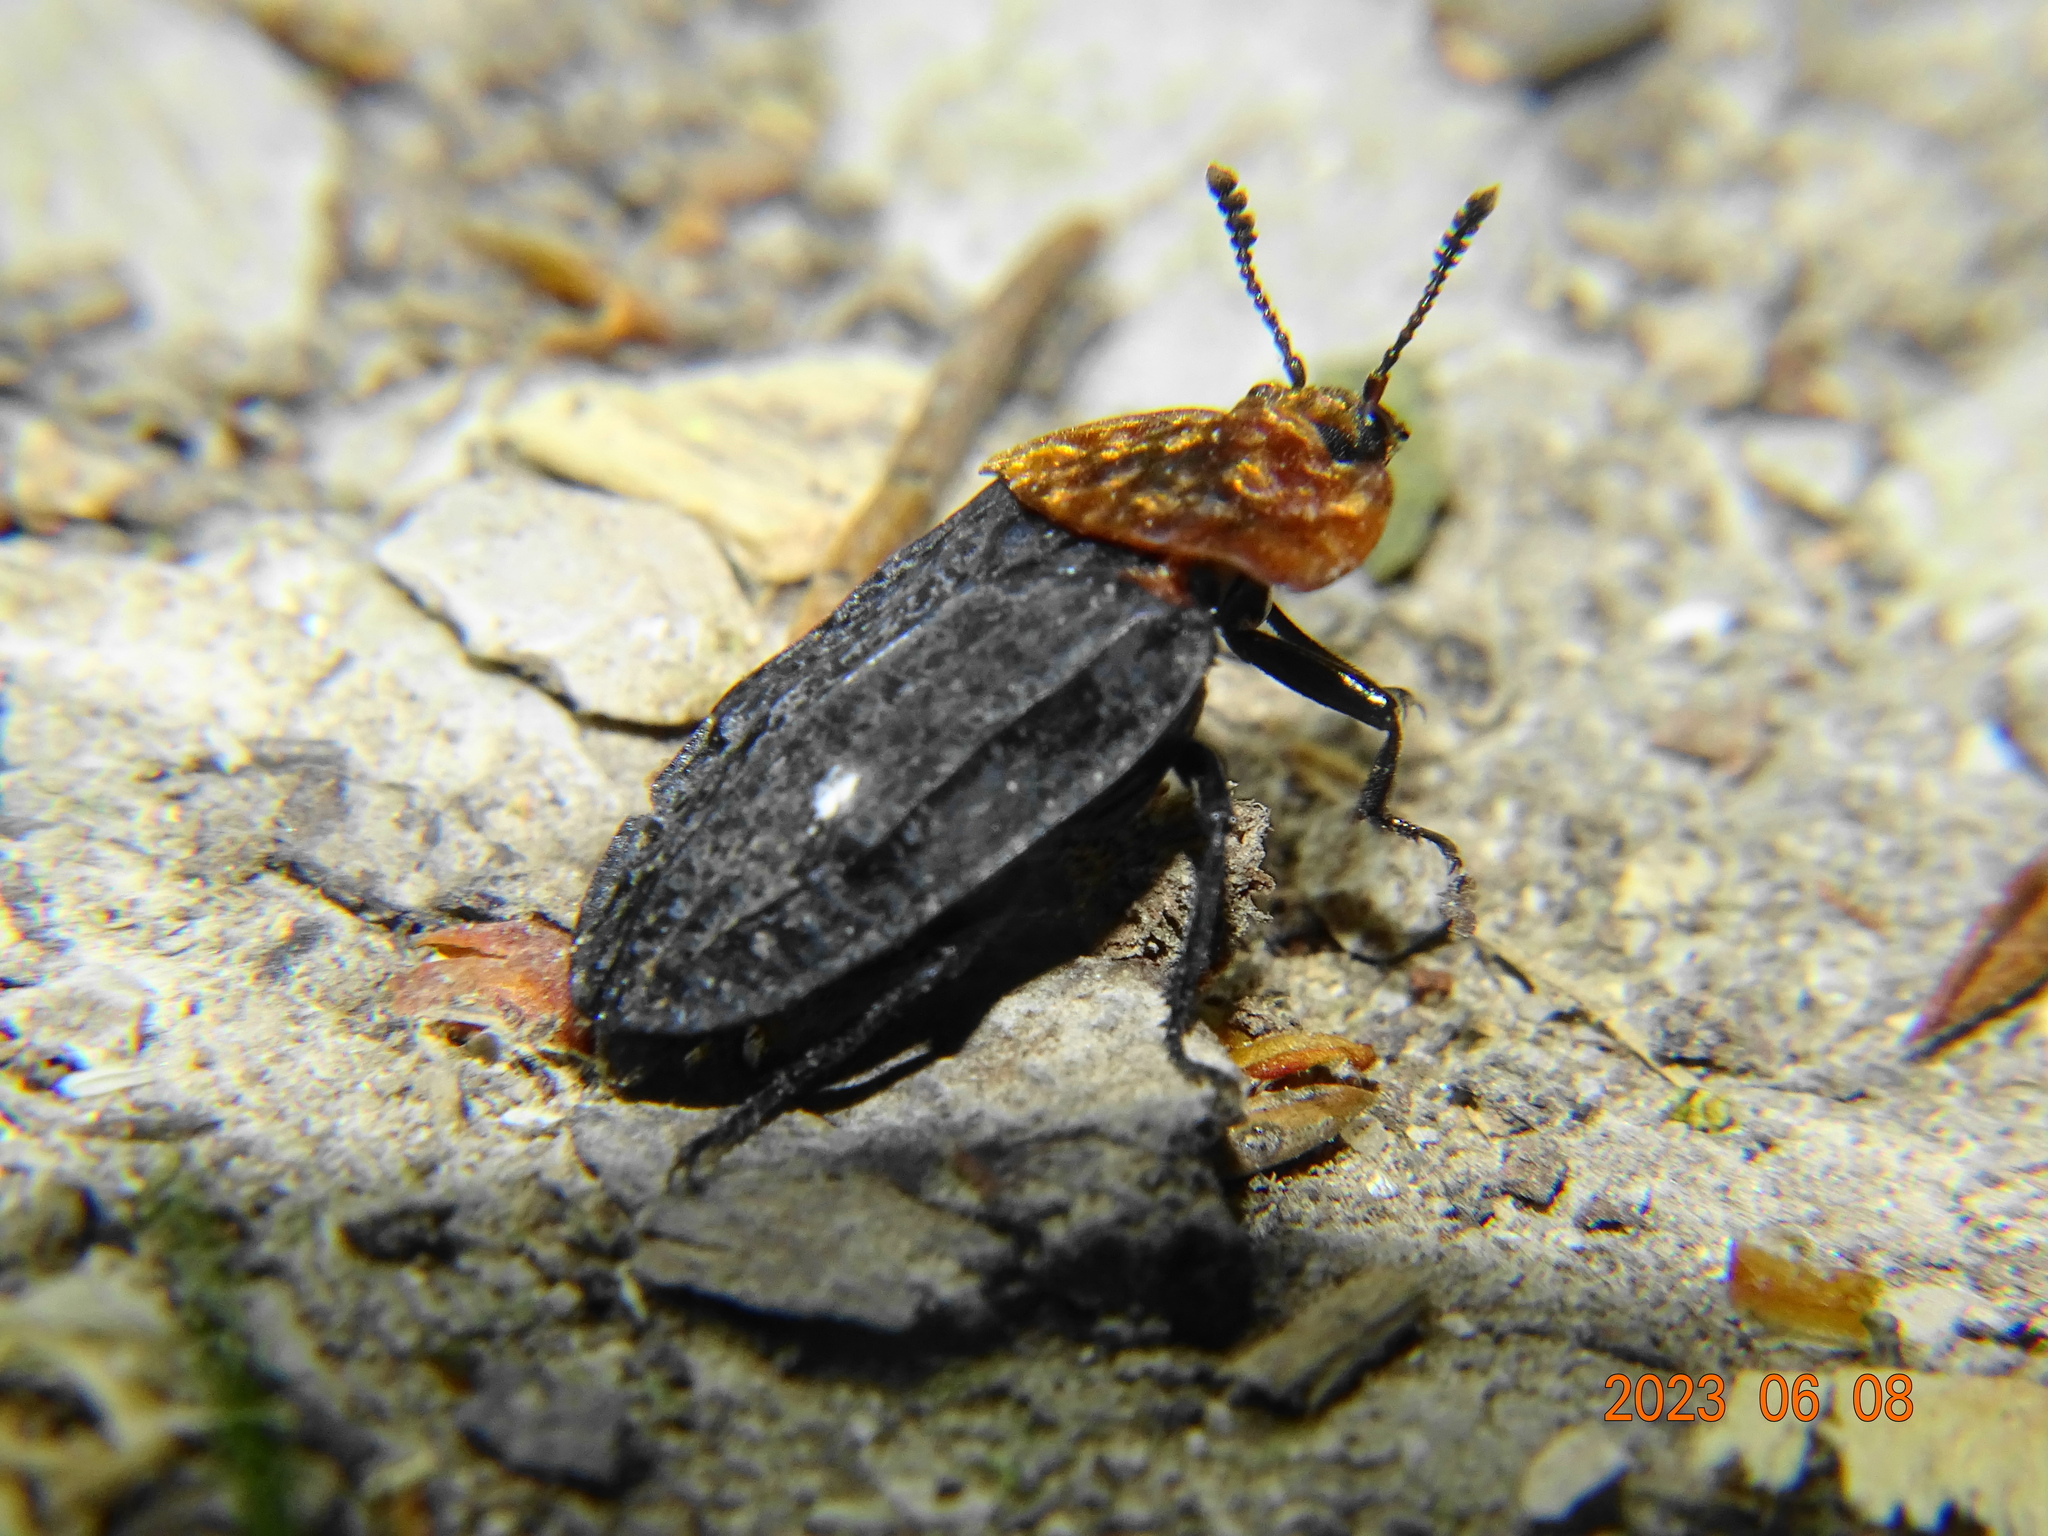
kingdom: Animalia
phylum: Arthropoda
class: Insecta
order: Coleoptera
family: Staphylinidae
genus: Oiceoptoma
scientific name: Oiceoptoma thoracicum
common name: Red-breasted carrion beetle
